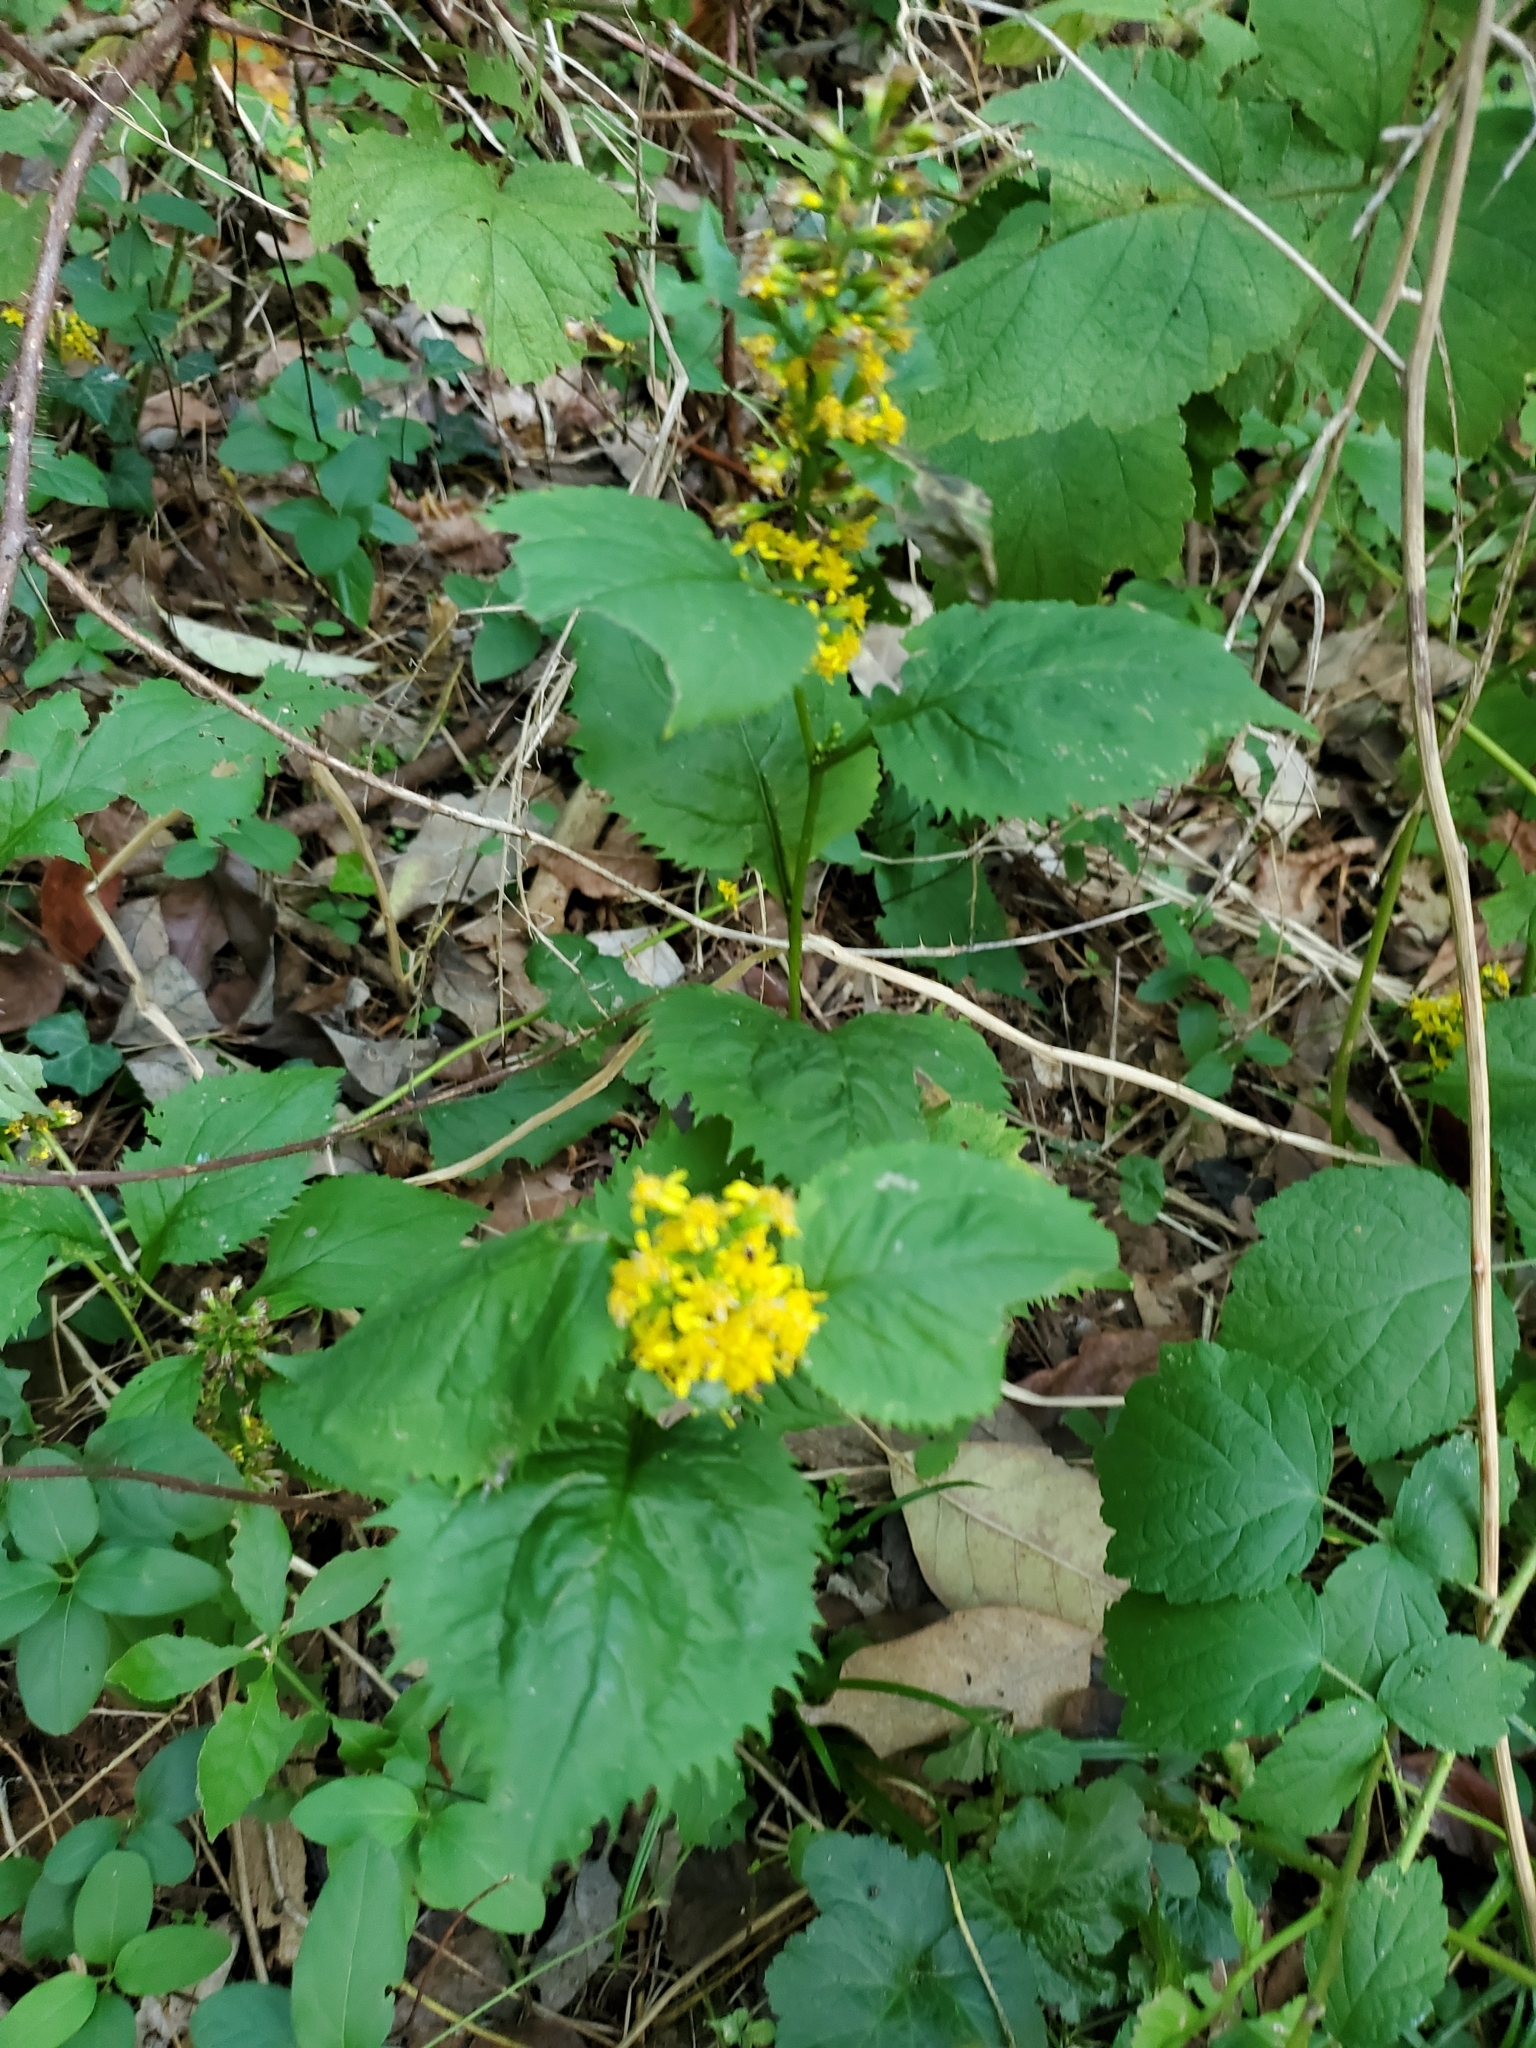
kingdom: Plantae
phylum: Tracheophyta
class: Magnoliopsida
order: Asterales
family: Asteraceae
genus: Solidago
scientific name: Solidago flexicaulis
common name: Zig-zag goldenrod
